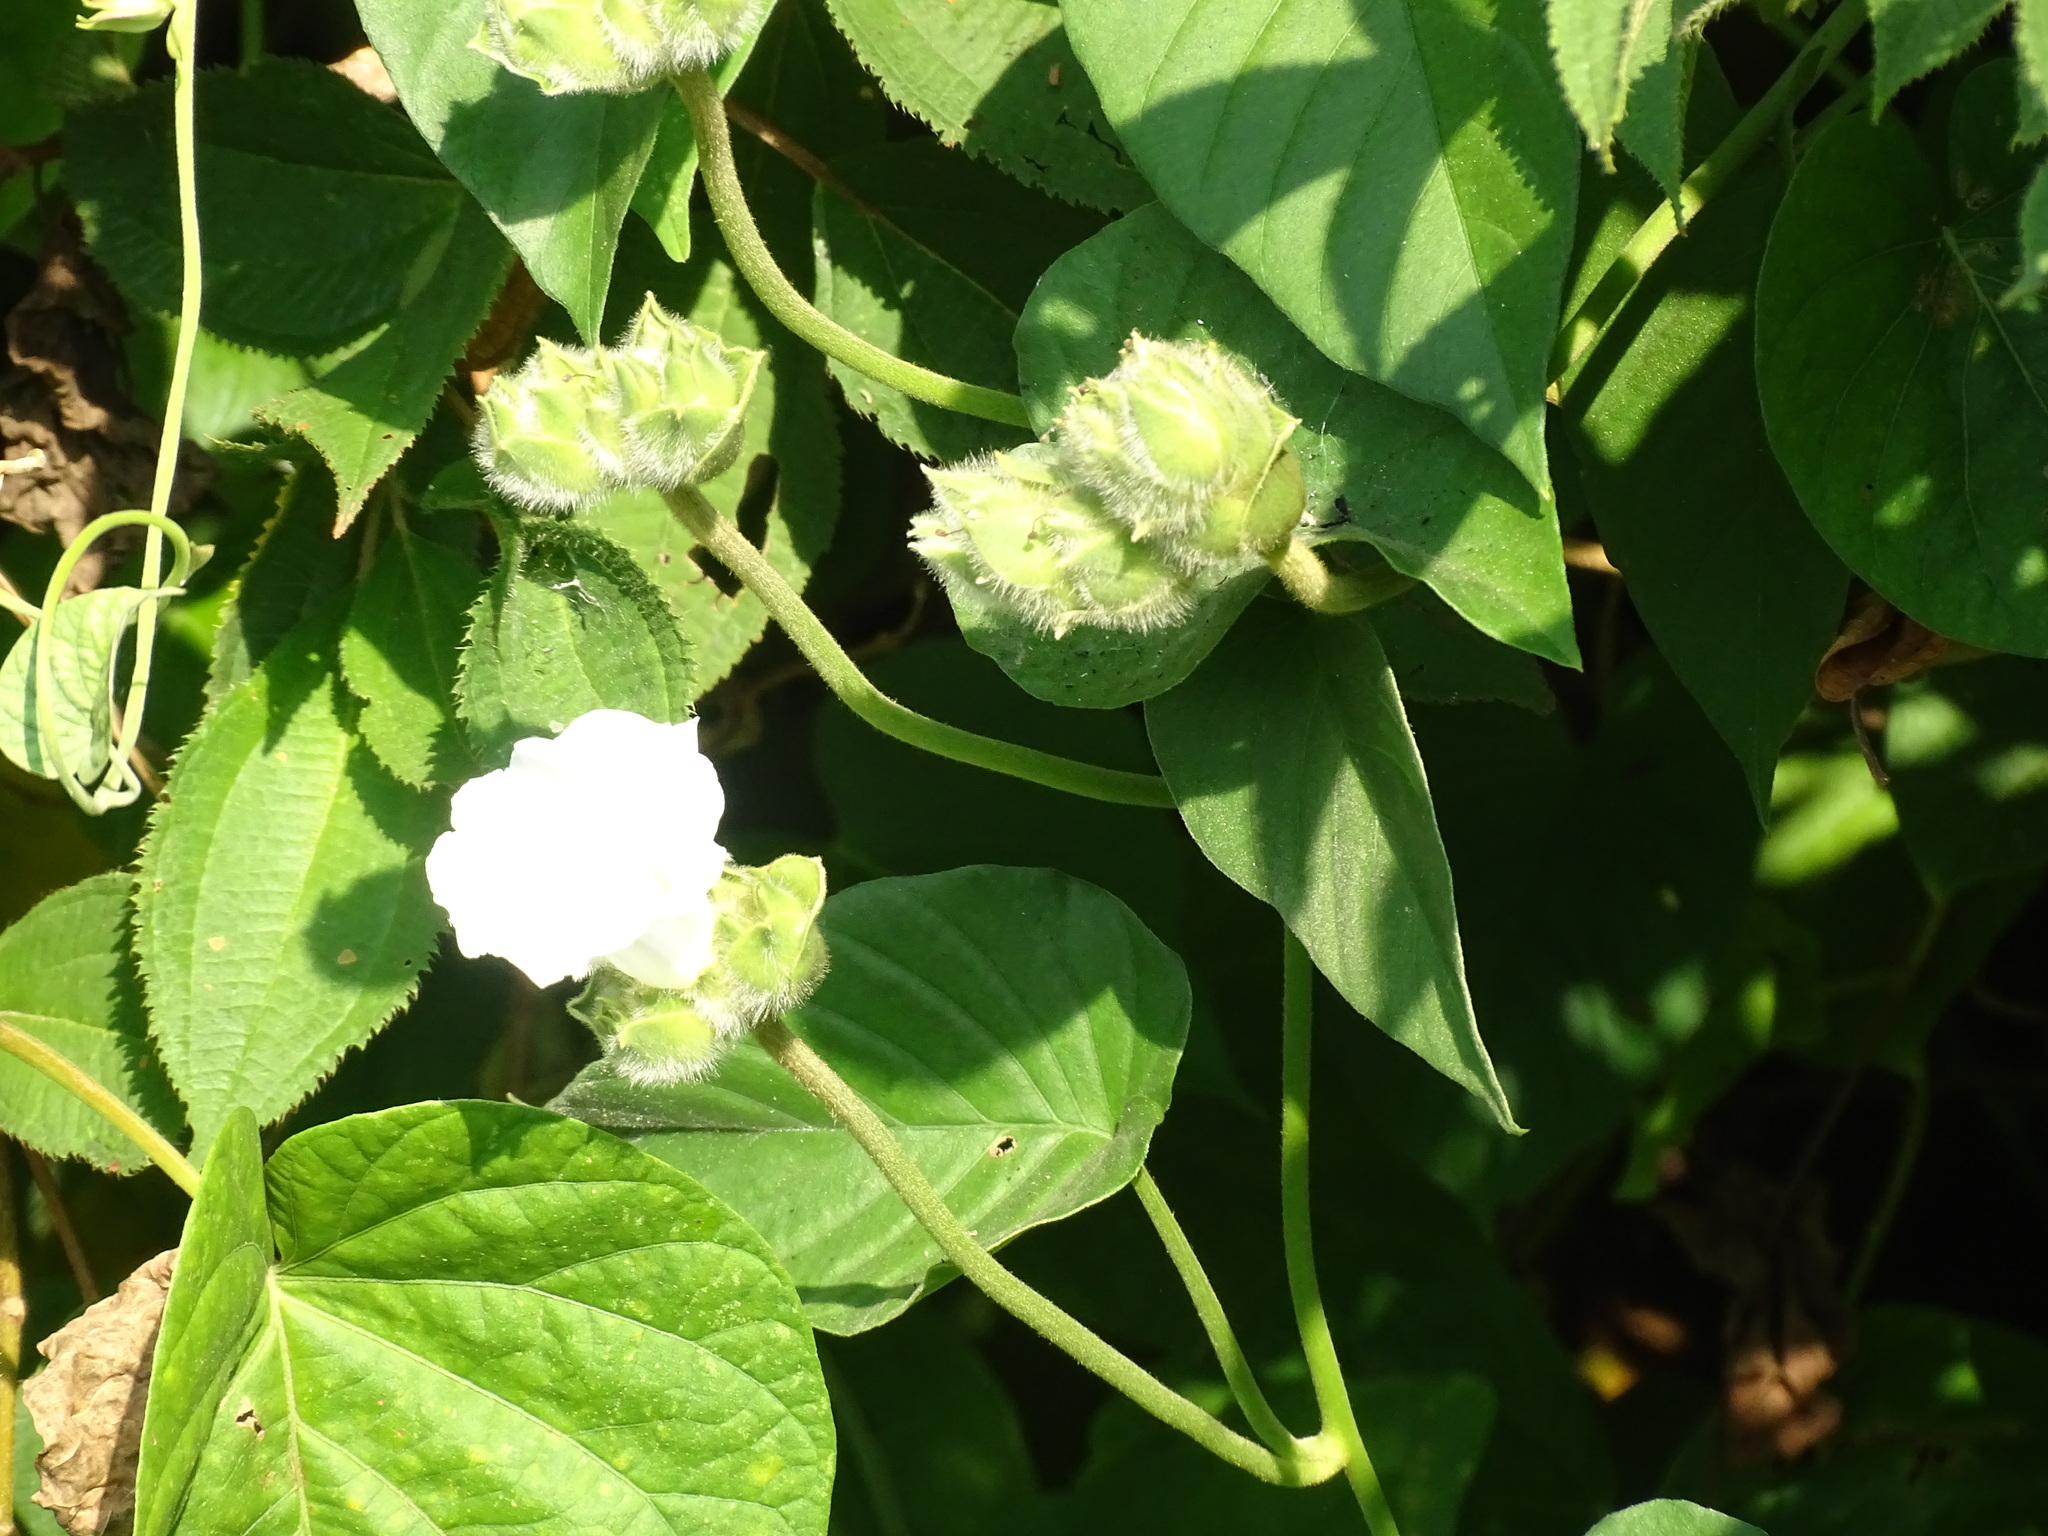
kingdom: Plantae
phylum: Tracheophyta
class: Magnoliopsida
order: Solanales
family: Convolvulaceae
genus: Odonellia
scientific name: Odonellia hirtiflora
